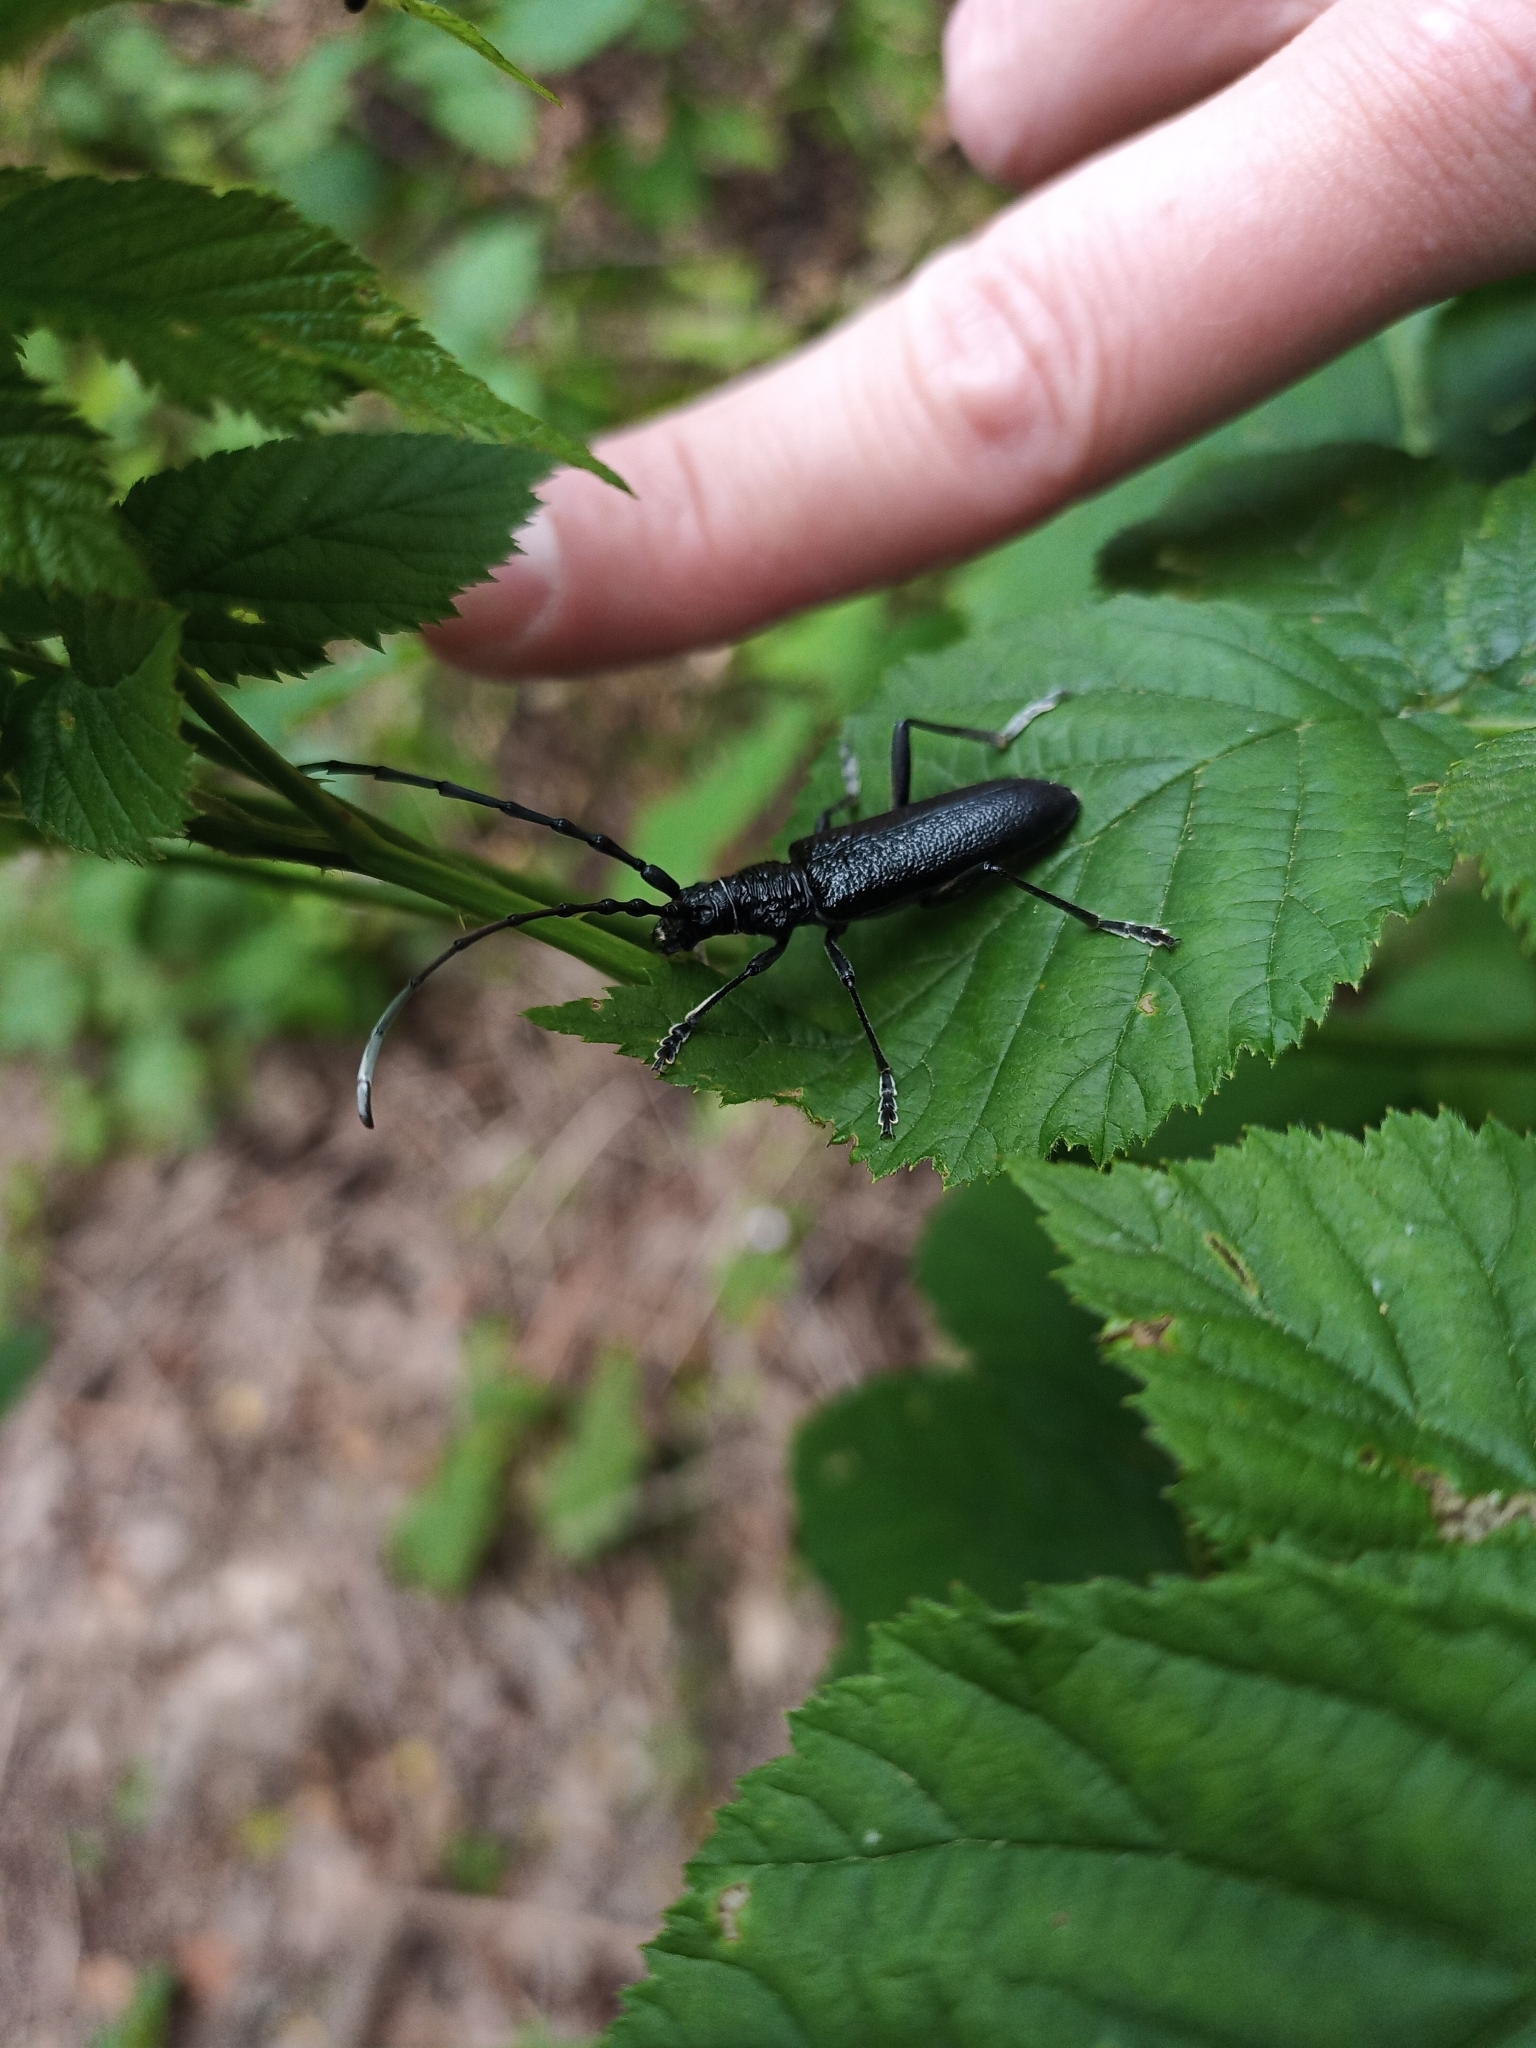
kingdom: Animalia
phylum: Arthropoda
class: Insecta
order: Coleoptera
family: Cerambycidae
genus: Cerambyx
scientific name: Cerambyx scopolii
